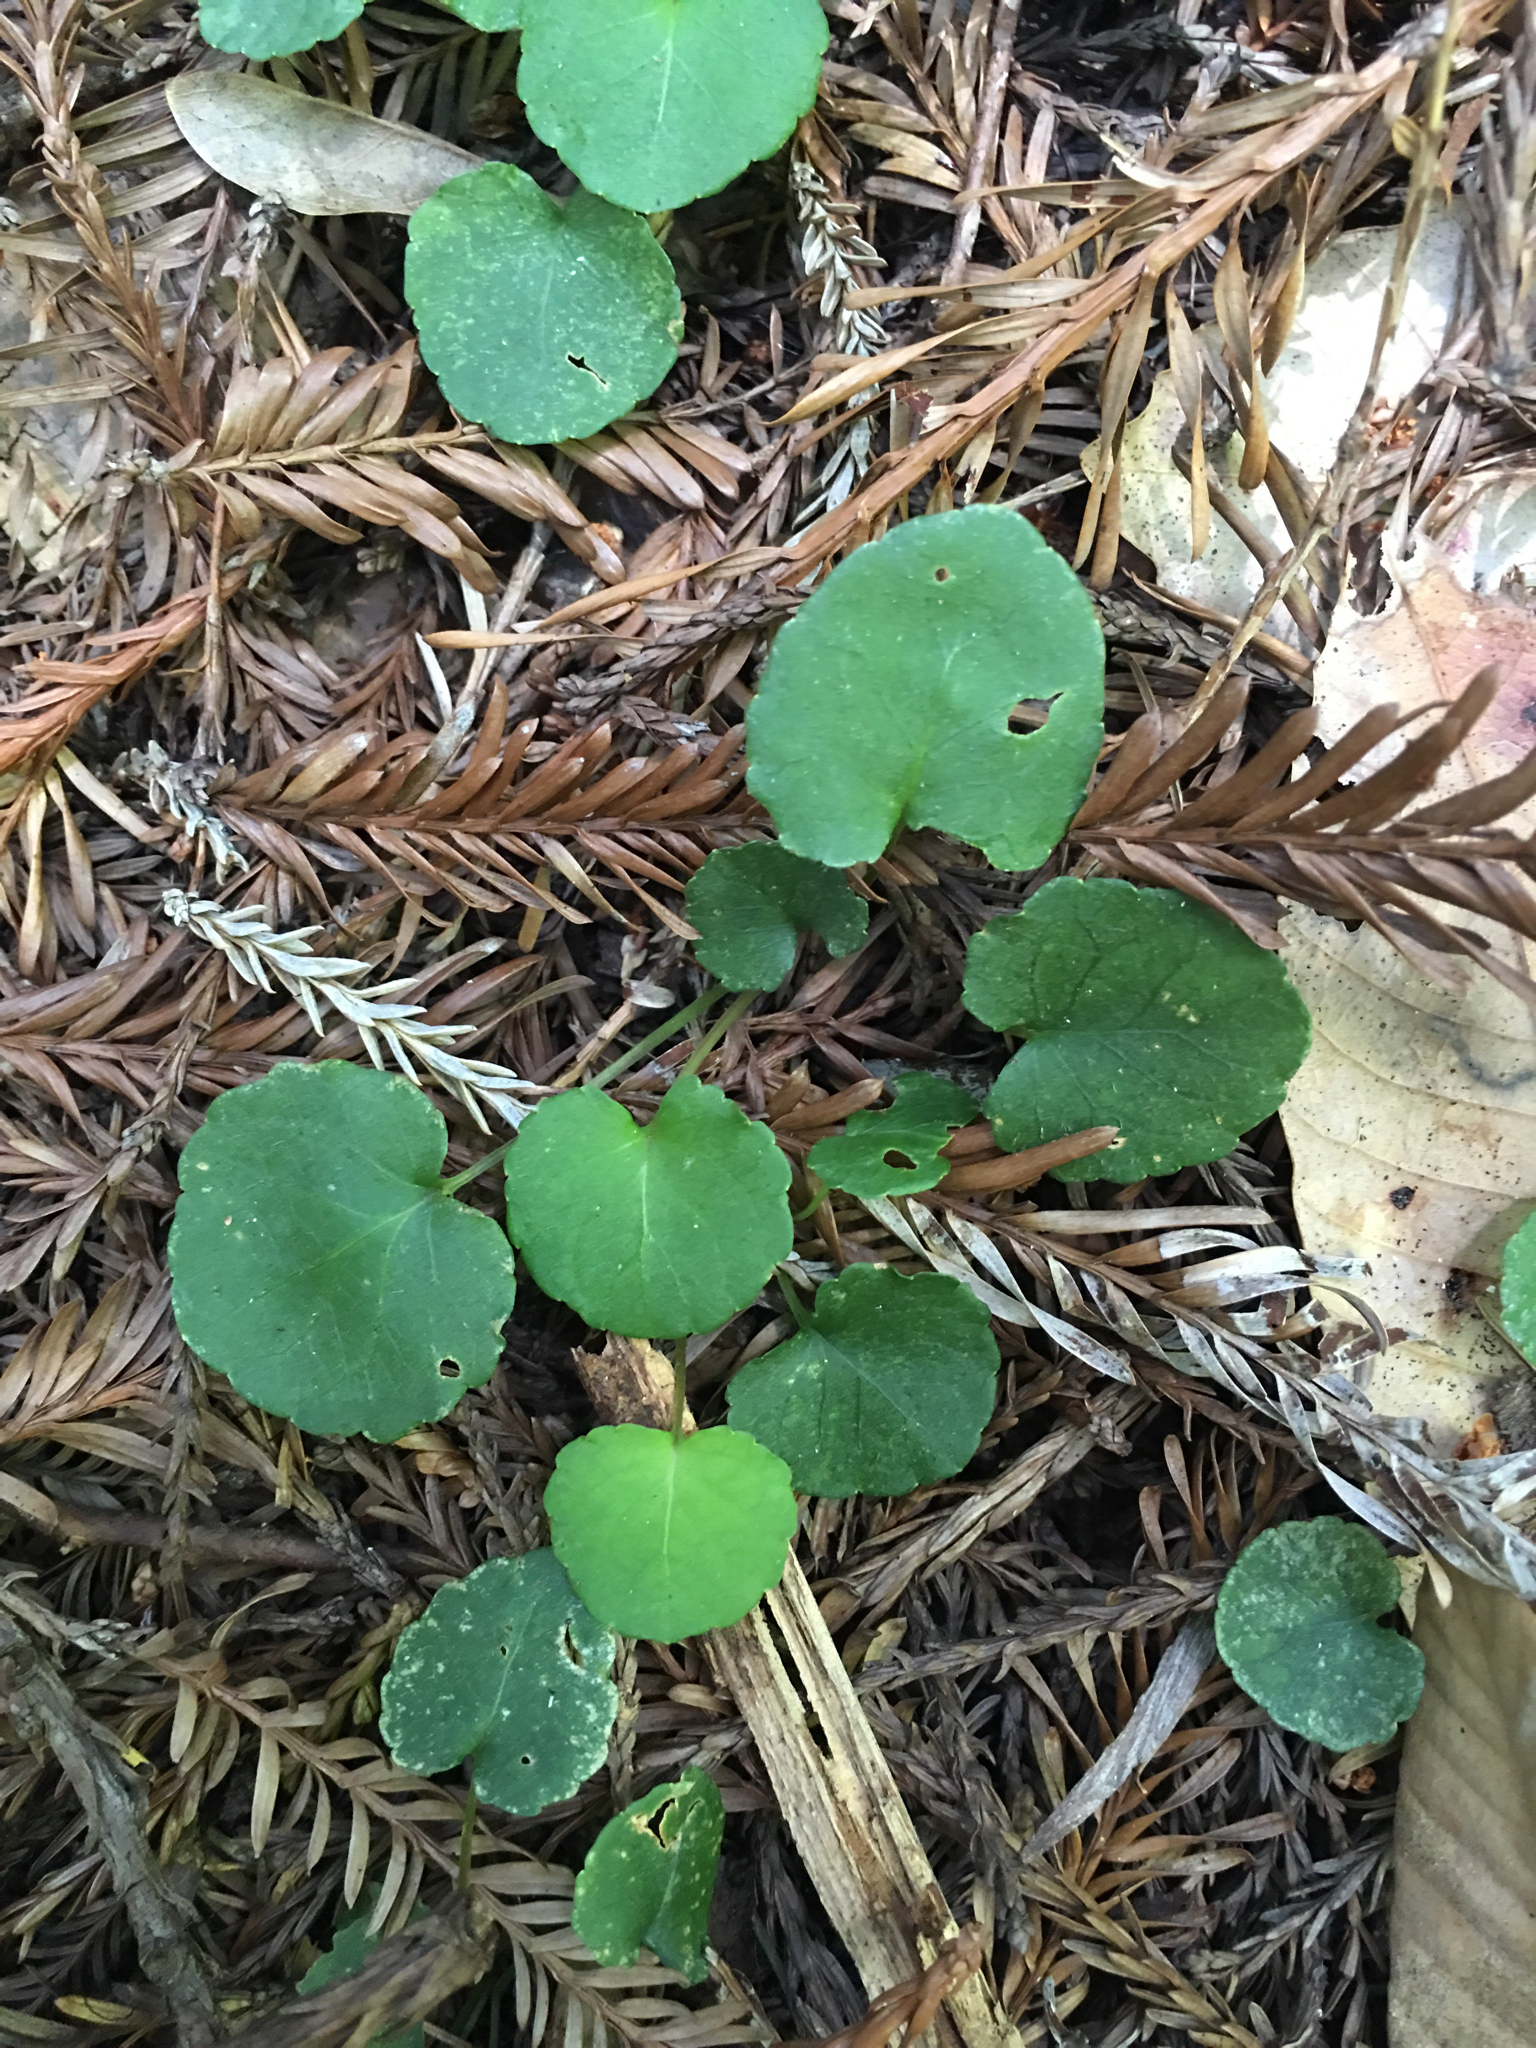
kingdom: Plantae
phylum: Tracheophyta
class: Magnoliopsida
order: Malpighiales
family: Violaceae
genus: Viola
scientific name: Viola sempervirens
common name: Evergreen violet
